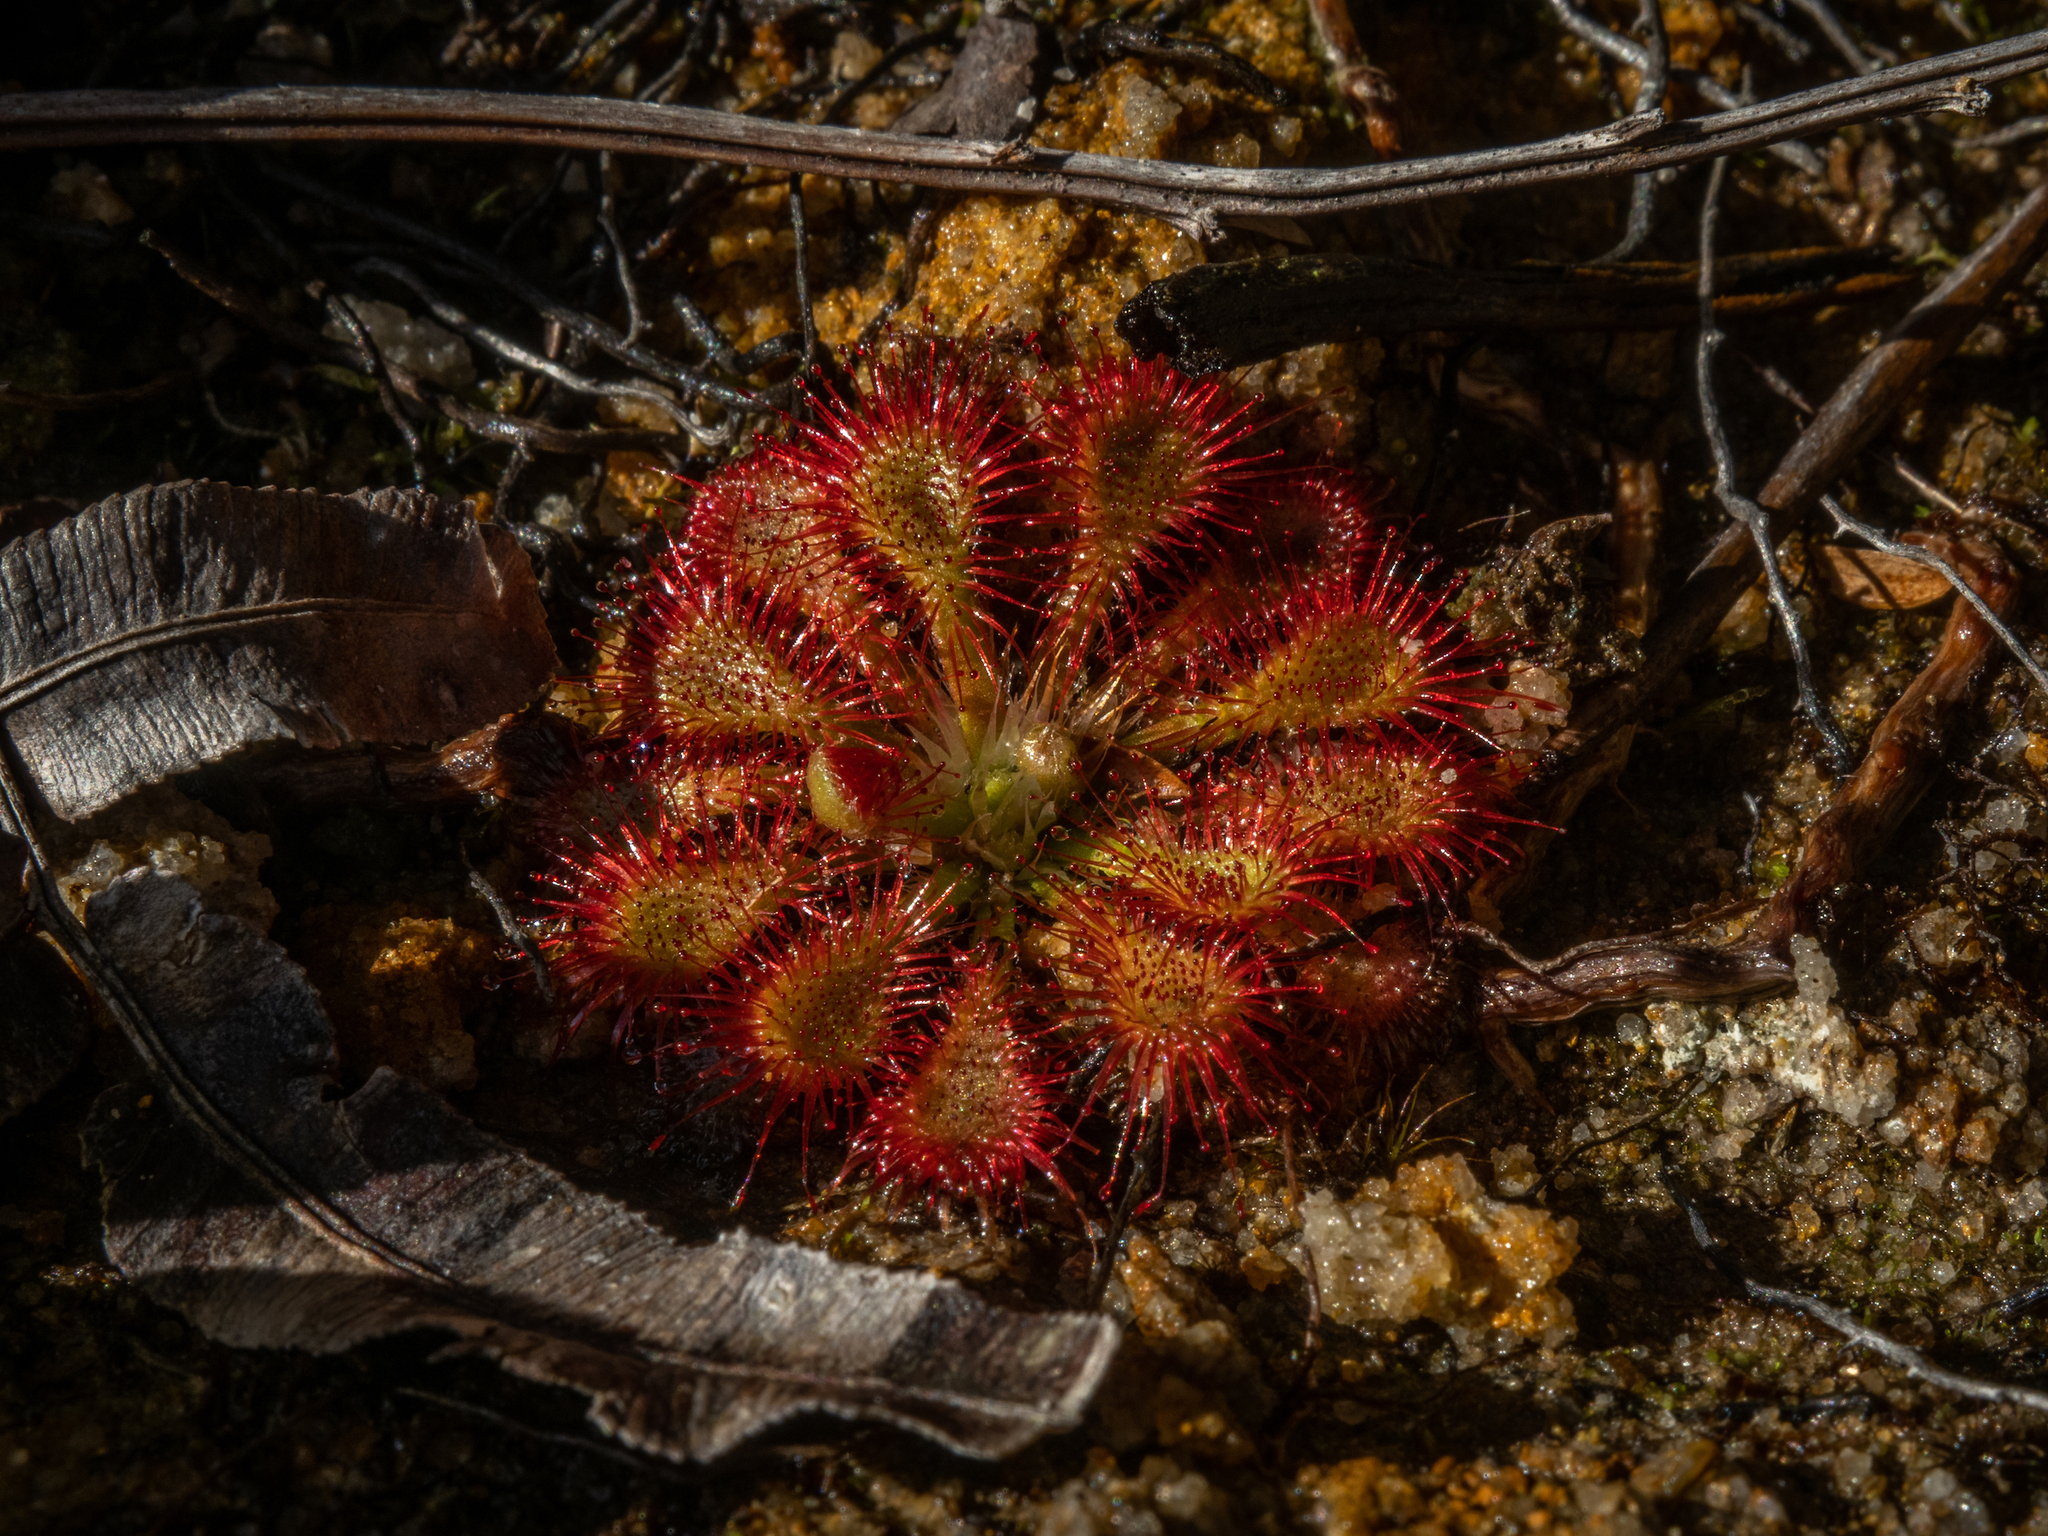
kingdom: Plantae
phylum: Tracheophyta
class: Magnoliopsida
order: Caryophyllales
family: Droseraceae
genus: Drosera
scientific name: Drosera spatulata
